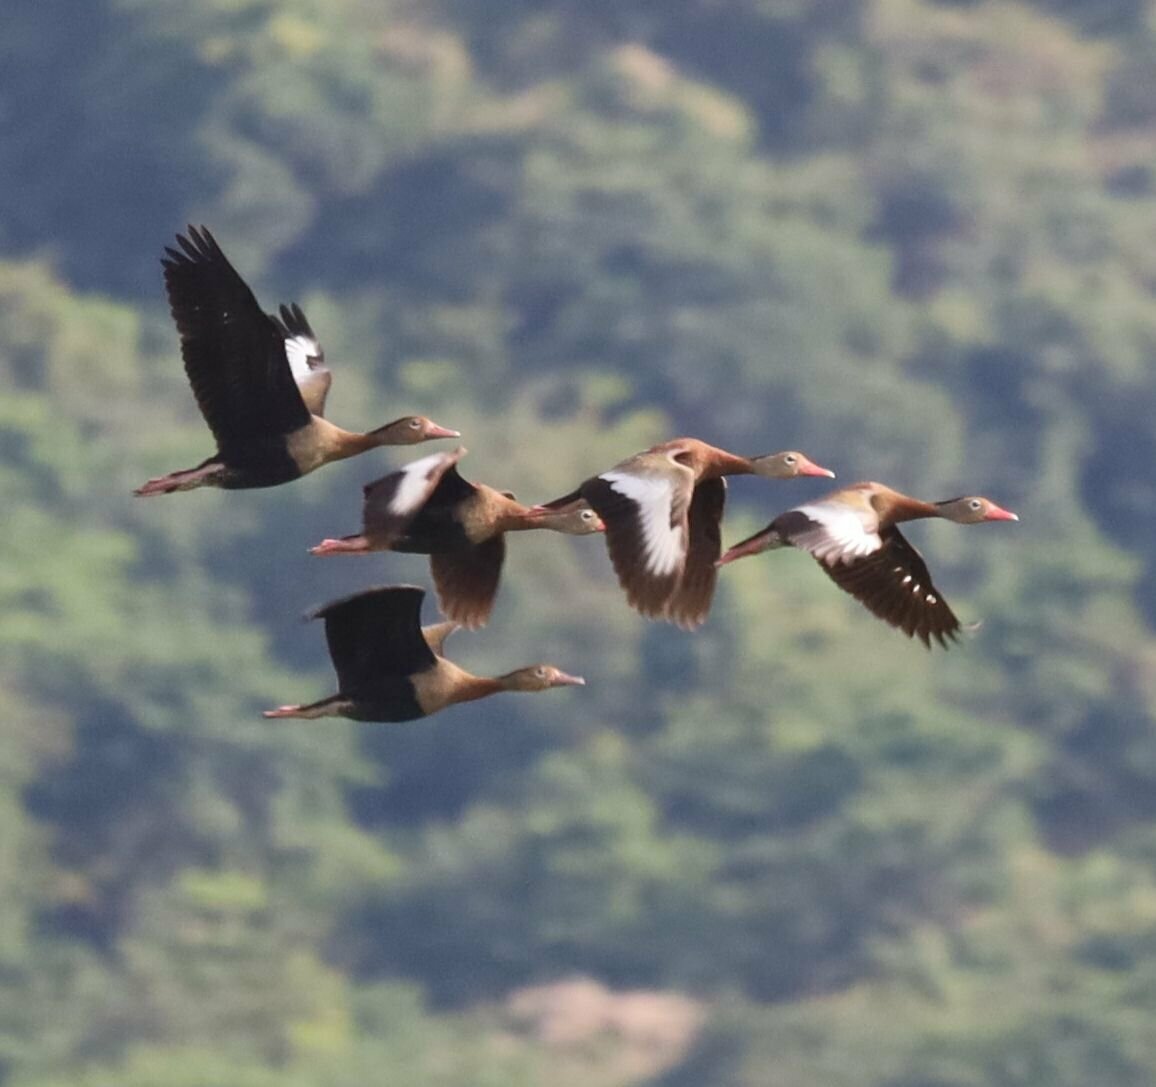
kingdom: Animalia
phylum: Chordata
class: Aves
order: Anseriformes
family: Anatidae
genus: Dendrocygna
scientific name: Dendrocygna autumnalis
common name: Black-bellied whistling duck
